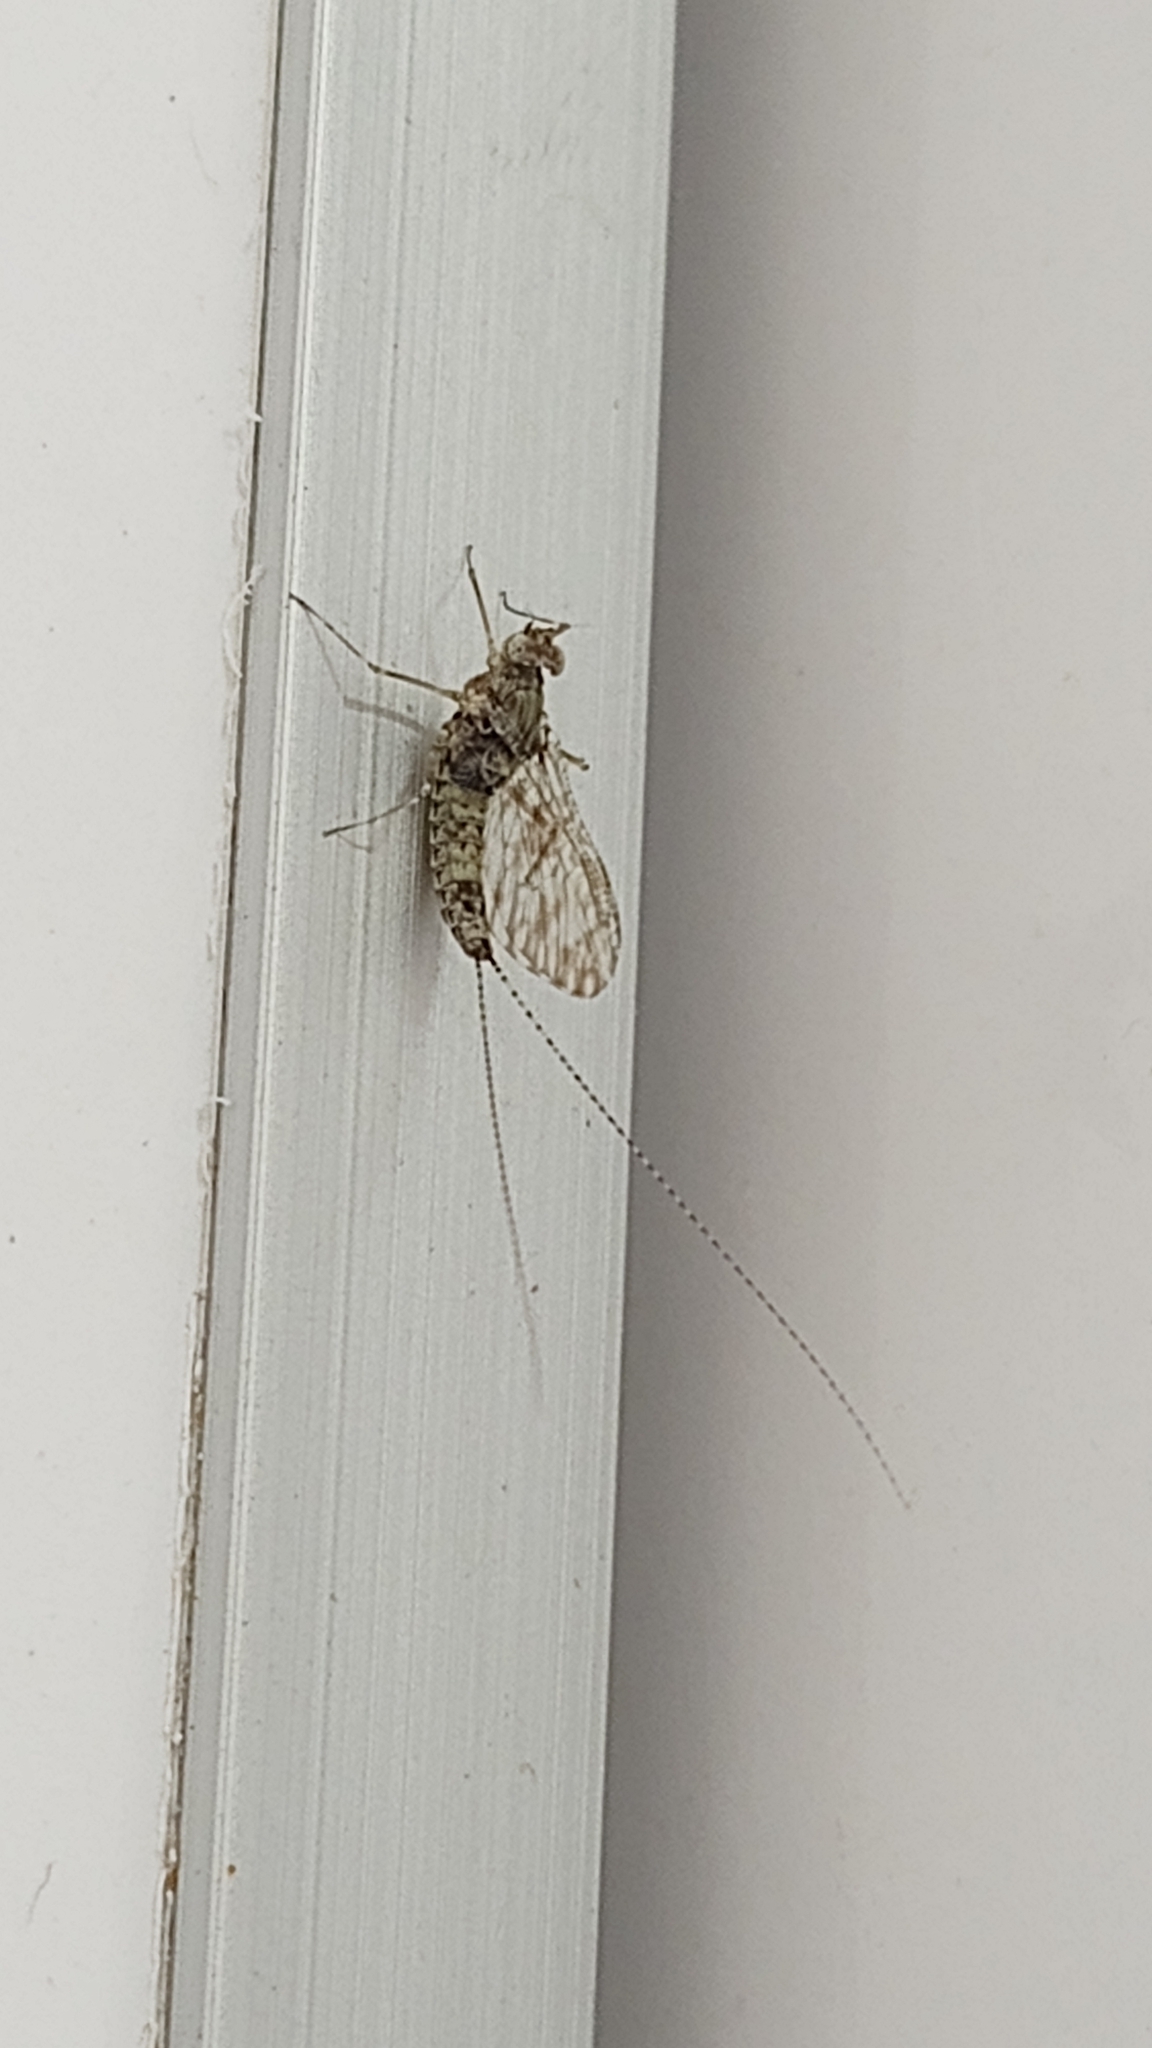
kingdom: Animalia
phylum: Arthropoda
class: Insecta
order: Ephemeroptera
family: Baetidae
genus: Callibaetis
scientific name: Callibaetis pictus
